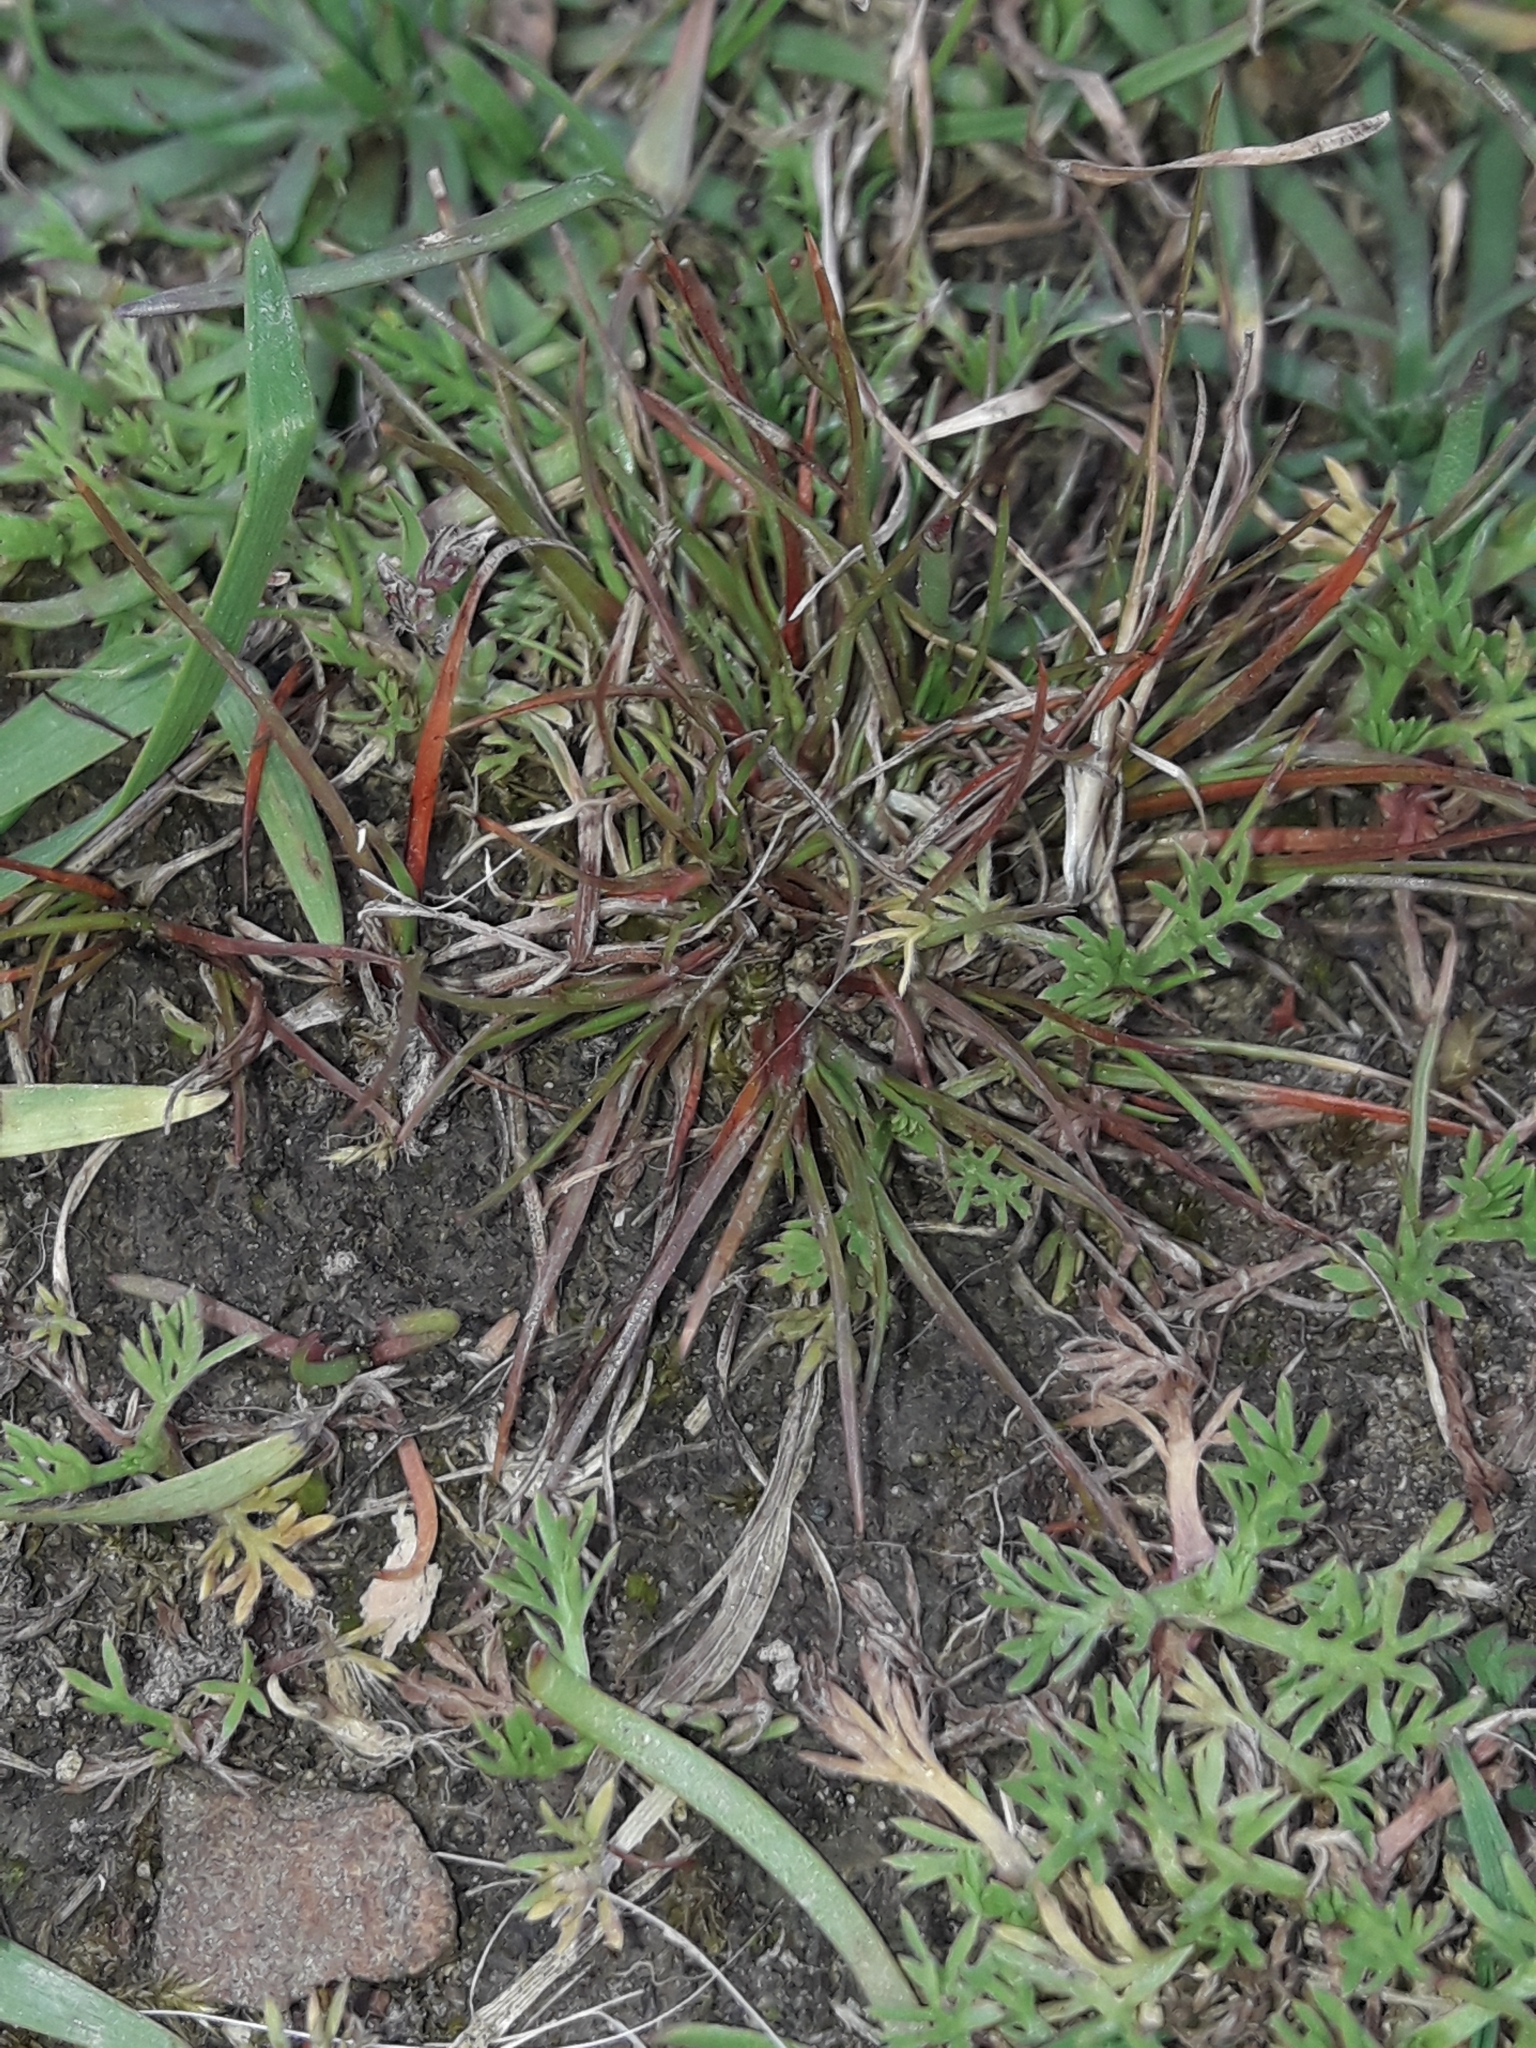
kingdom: Plantae
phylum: Tracheophyta
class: Liliopsida
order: Poales
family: Juncaceae
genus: Juncus
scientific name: Juncus bufonius
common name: Toad rush
